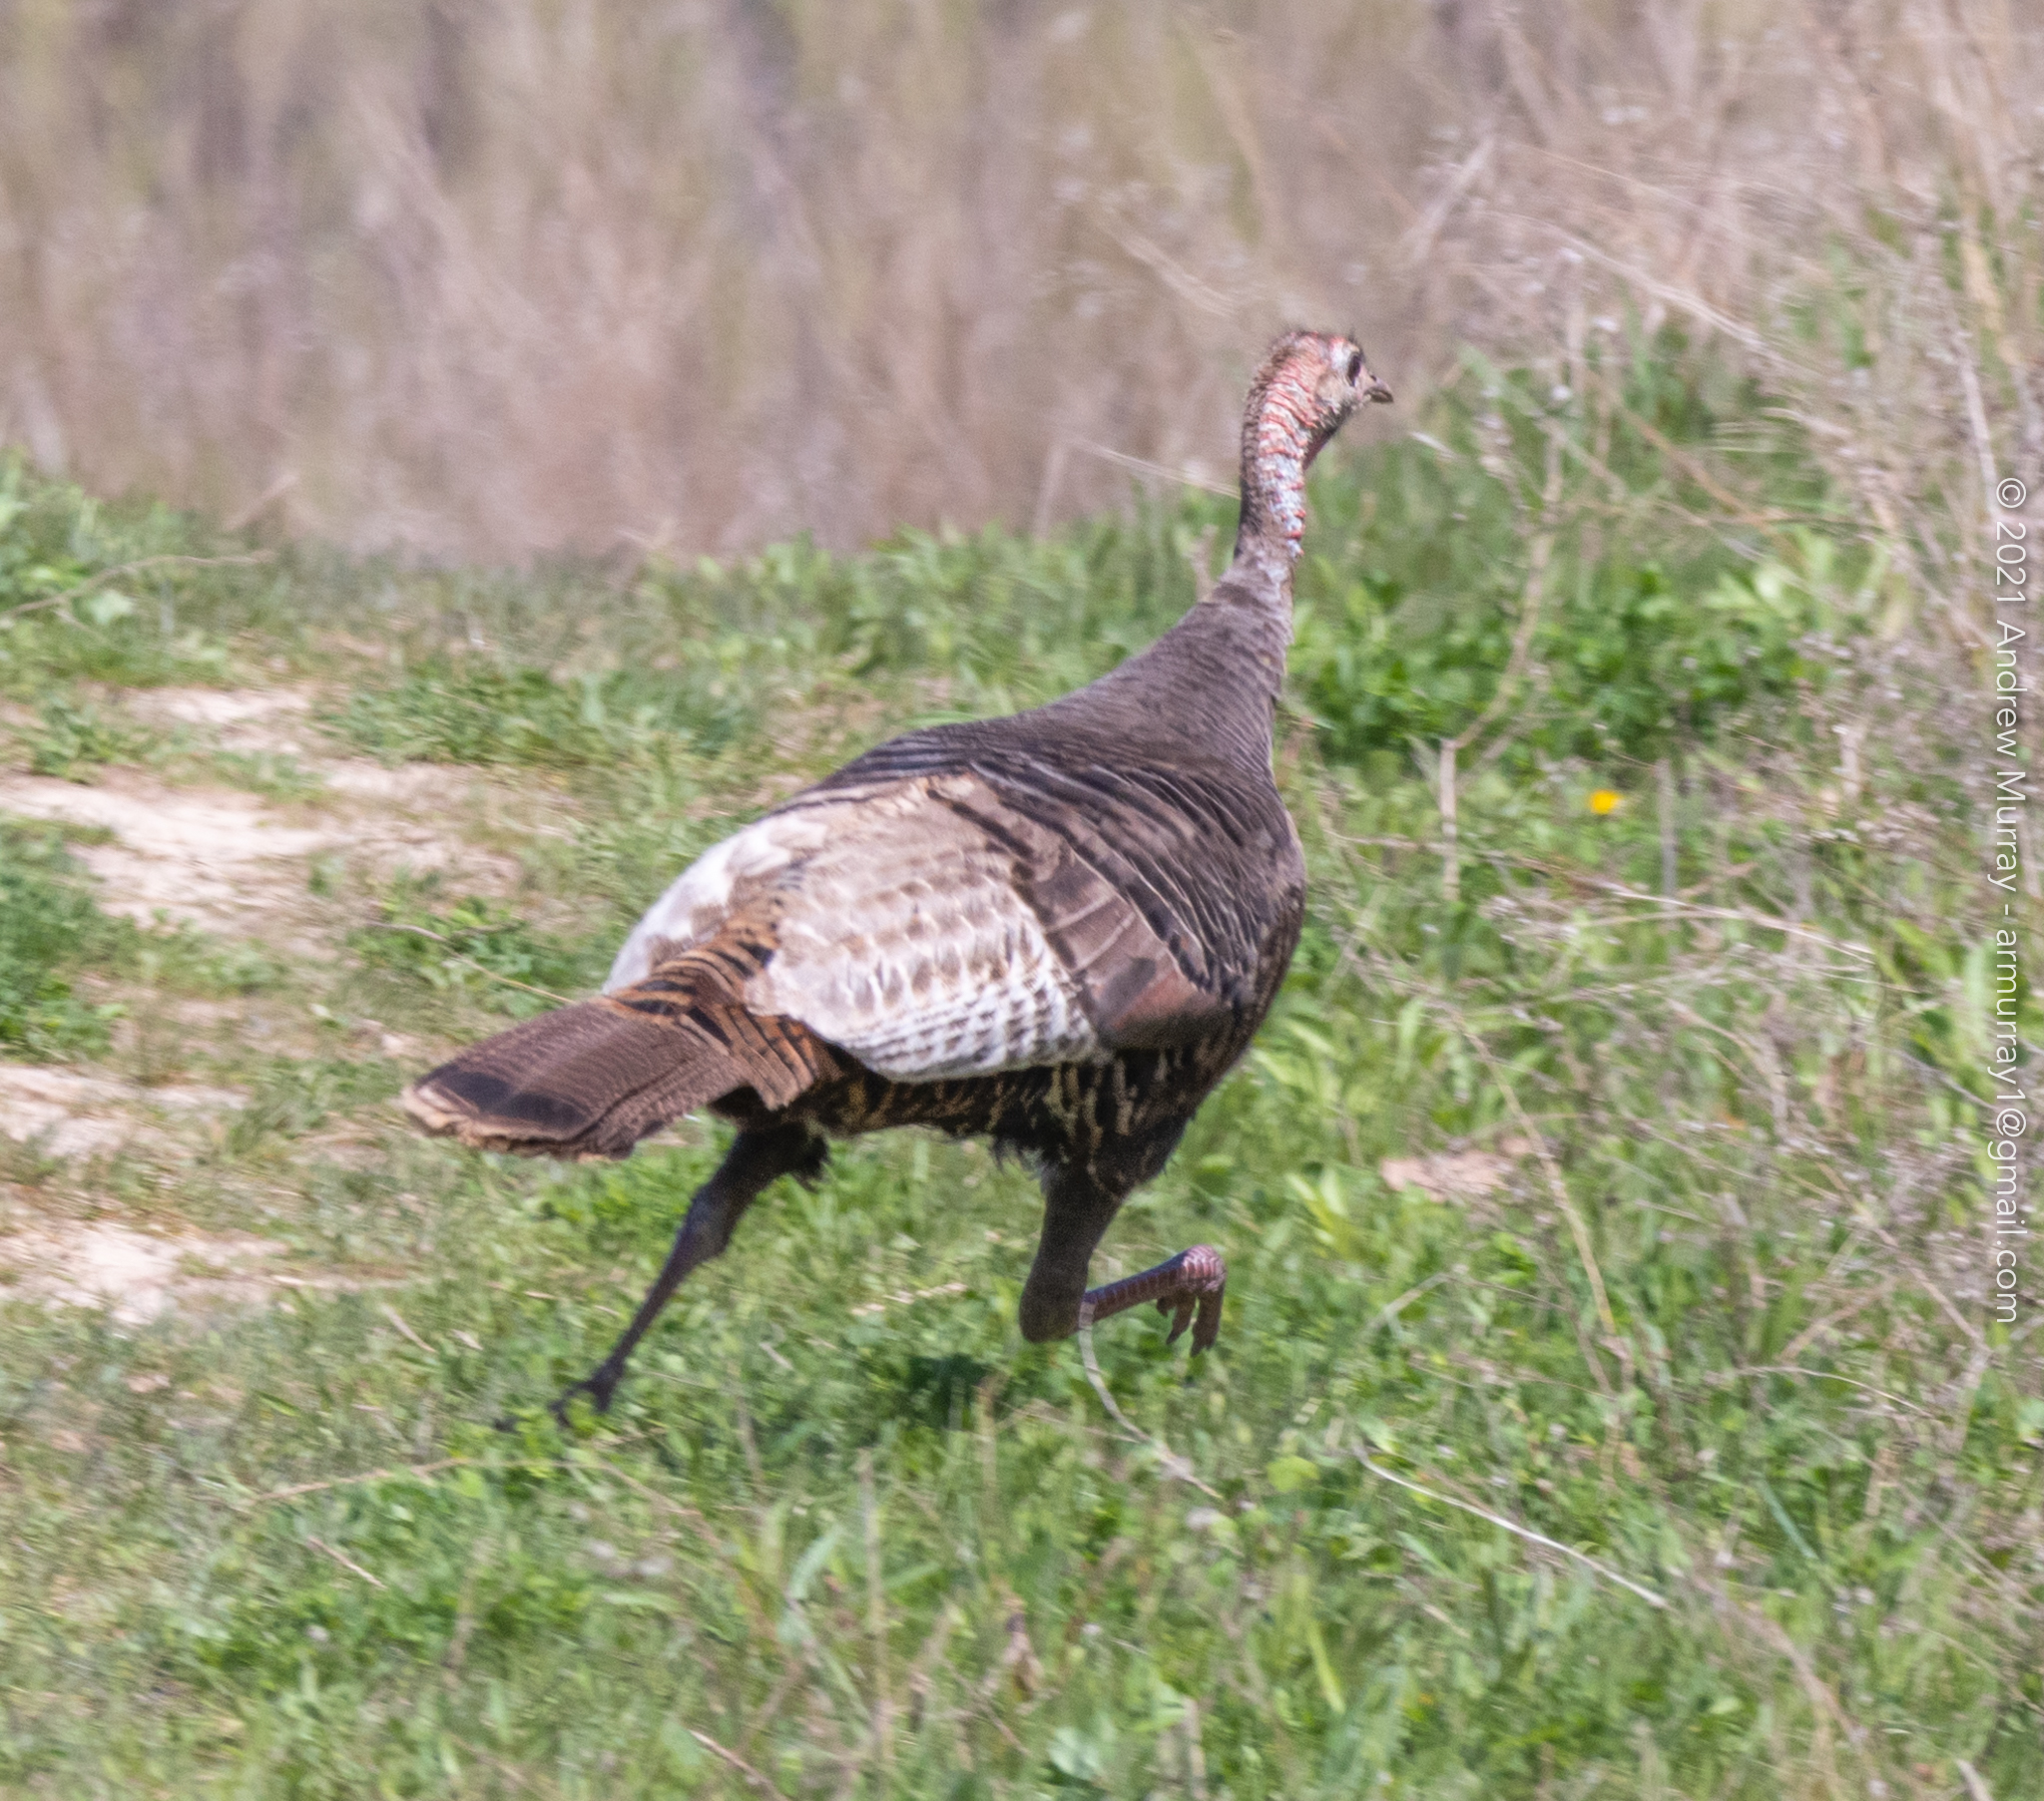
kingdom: Animalia
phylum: Chordata
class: Aves
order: Galliformes
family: Phasianidae
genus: Meleagris
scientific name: Meleagris gallopavo
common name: Wild turkey
